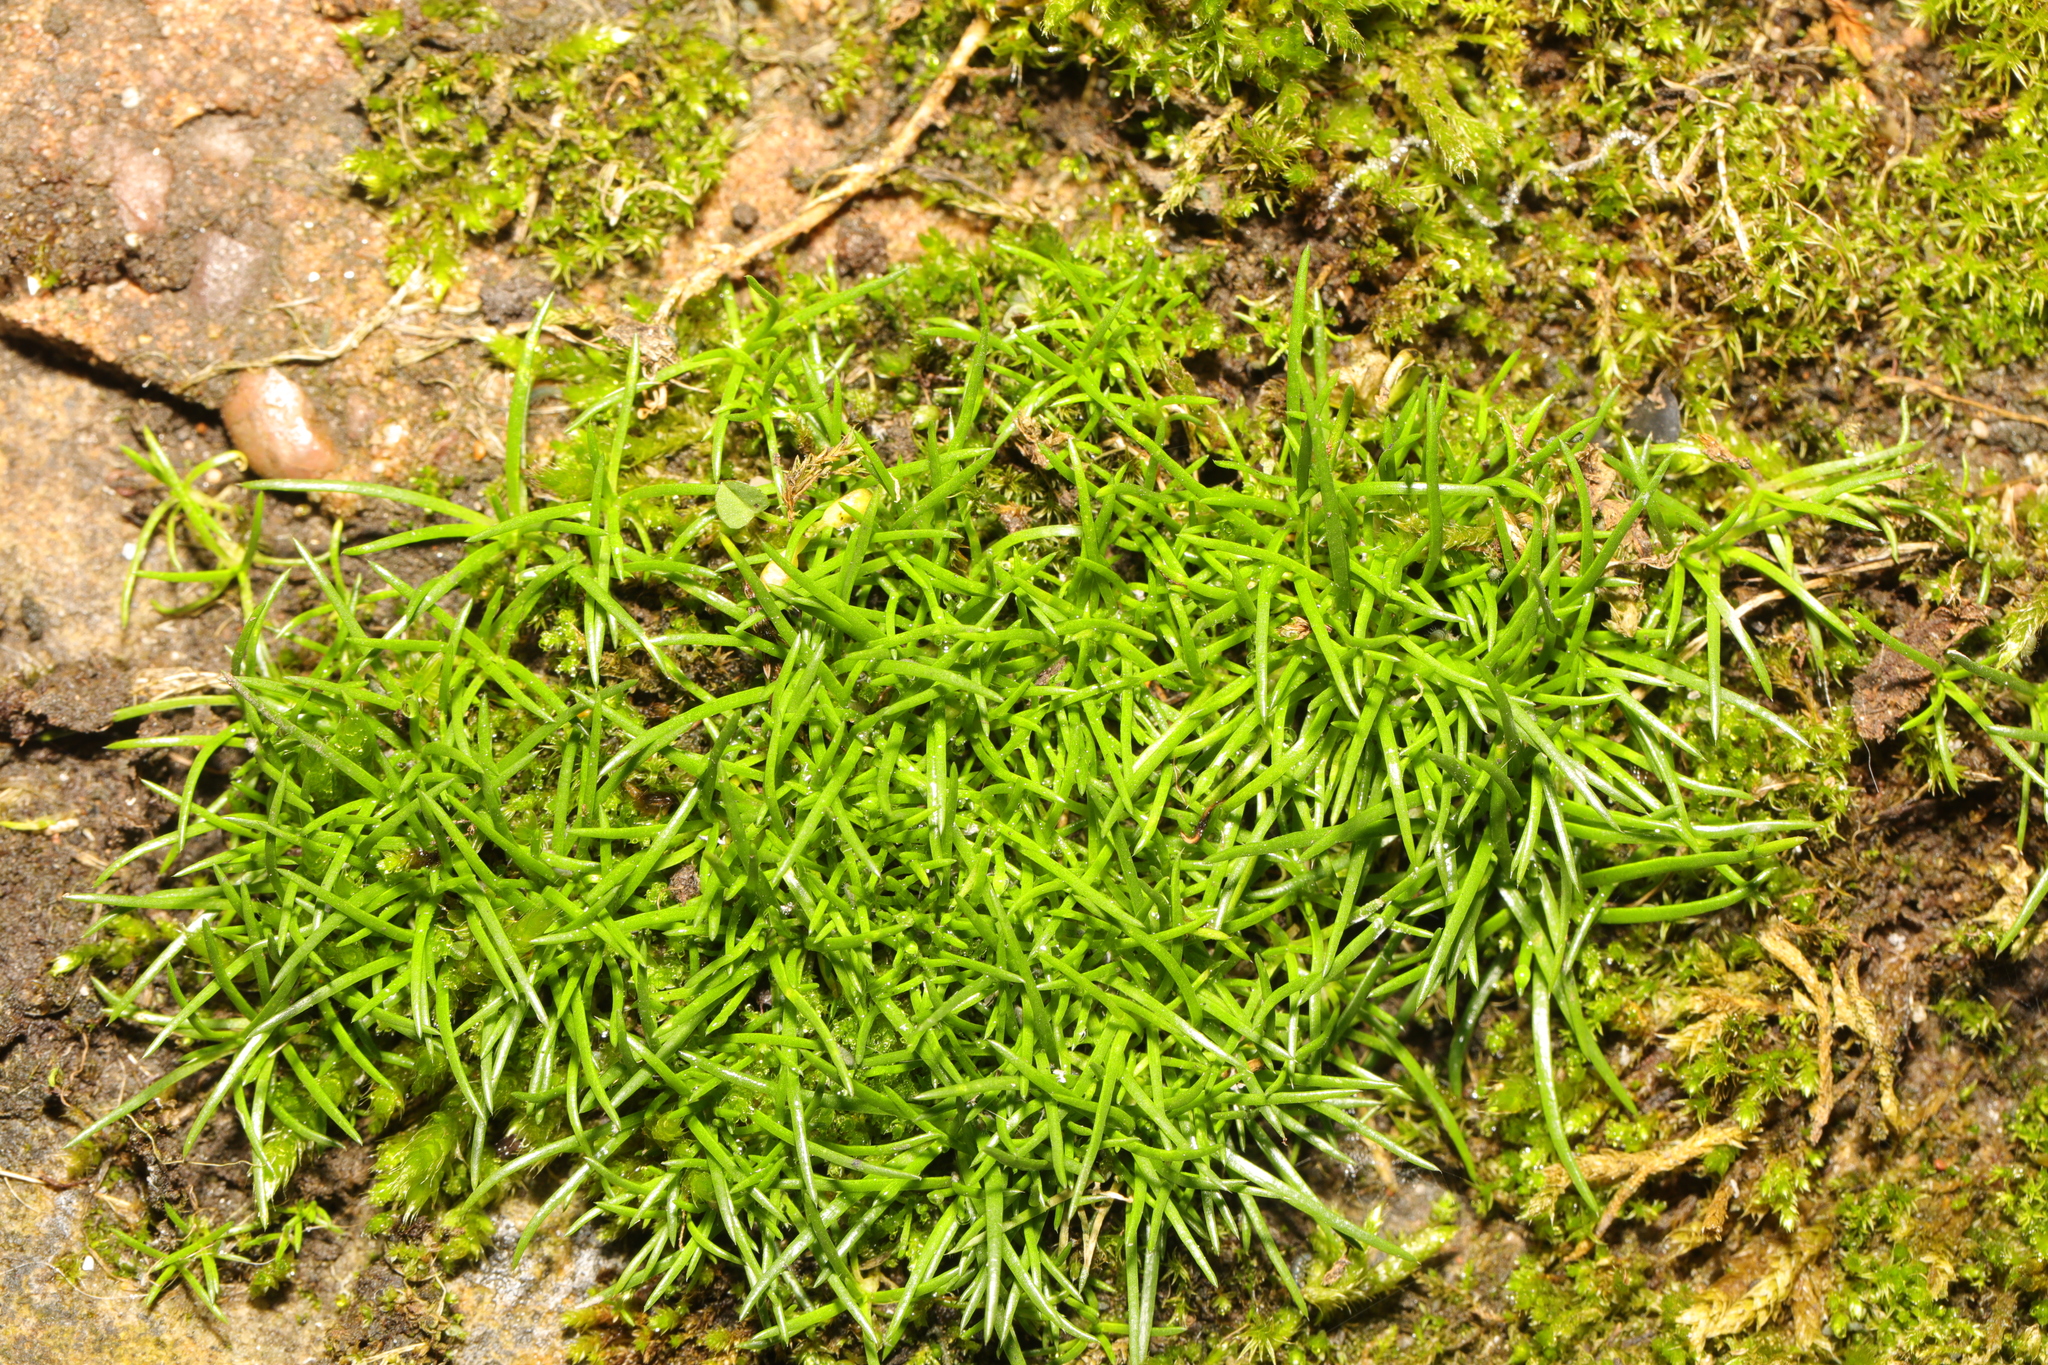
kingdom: Plantae
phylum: Tracheophyta
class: Magnoliopsida
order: Caryophyllales
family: Caryophyllaceae
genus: Sagina
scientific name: Sagina procumbens
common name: Procumbent pearlwort
